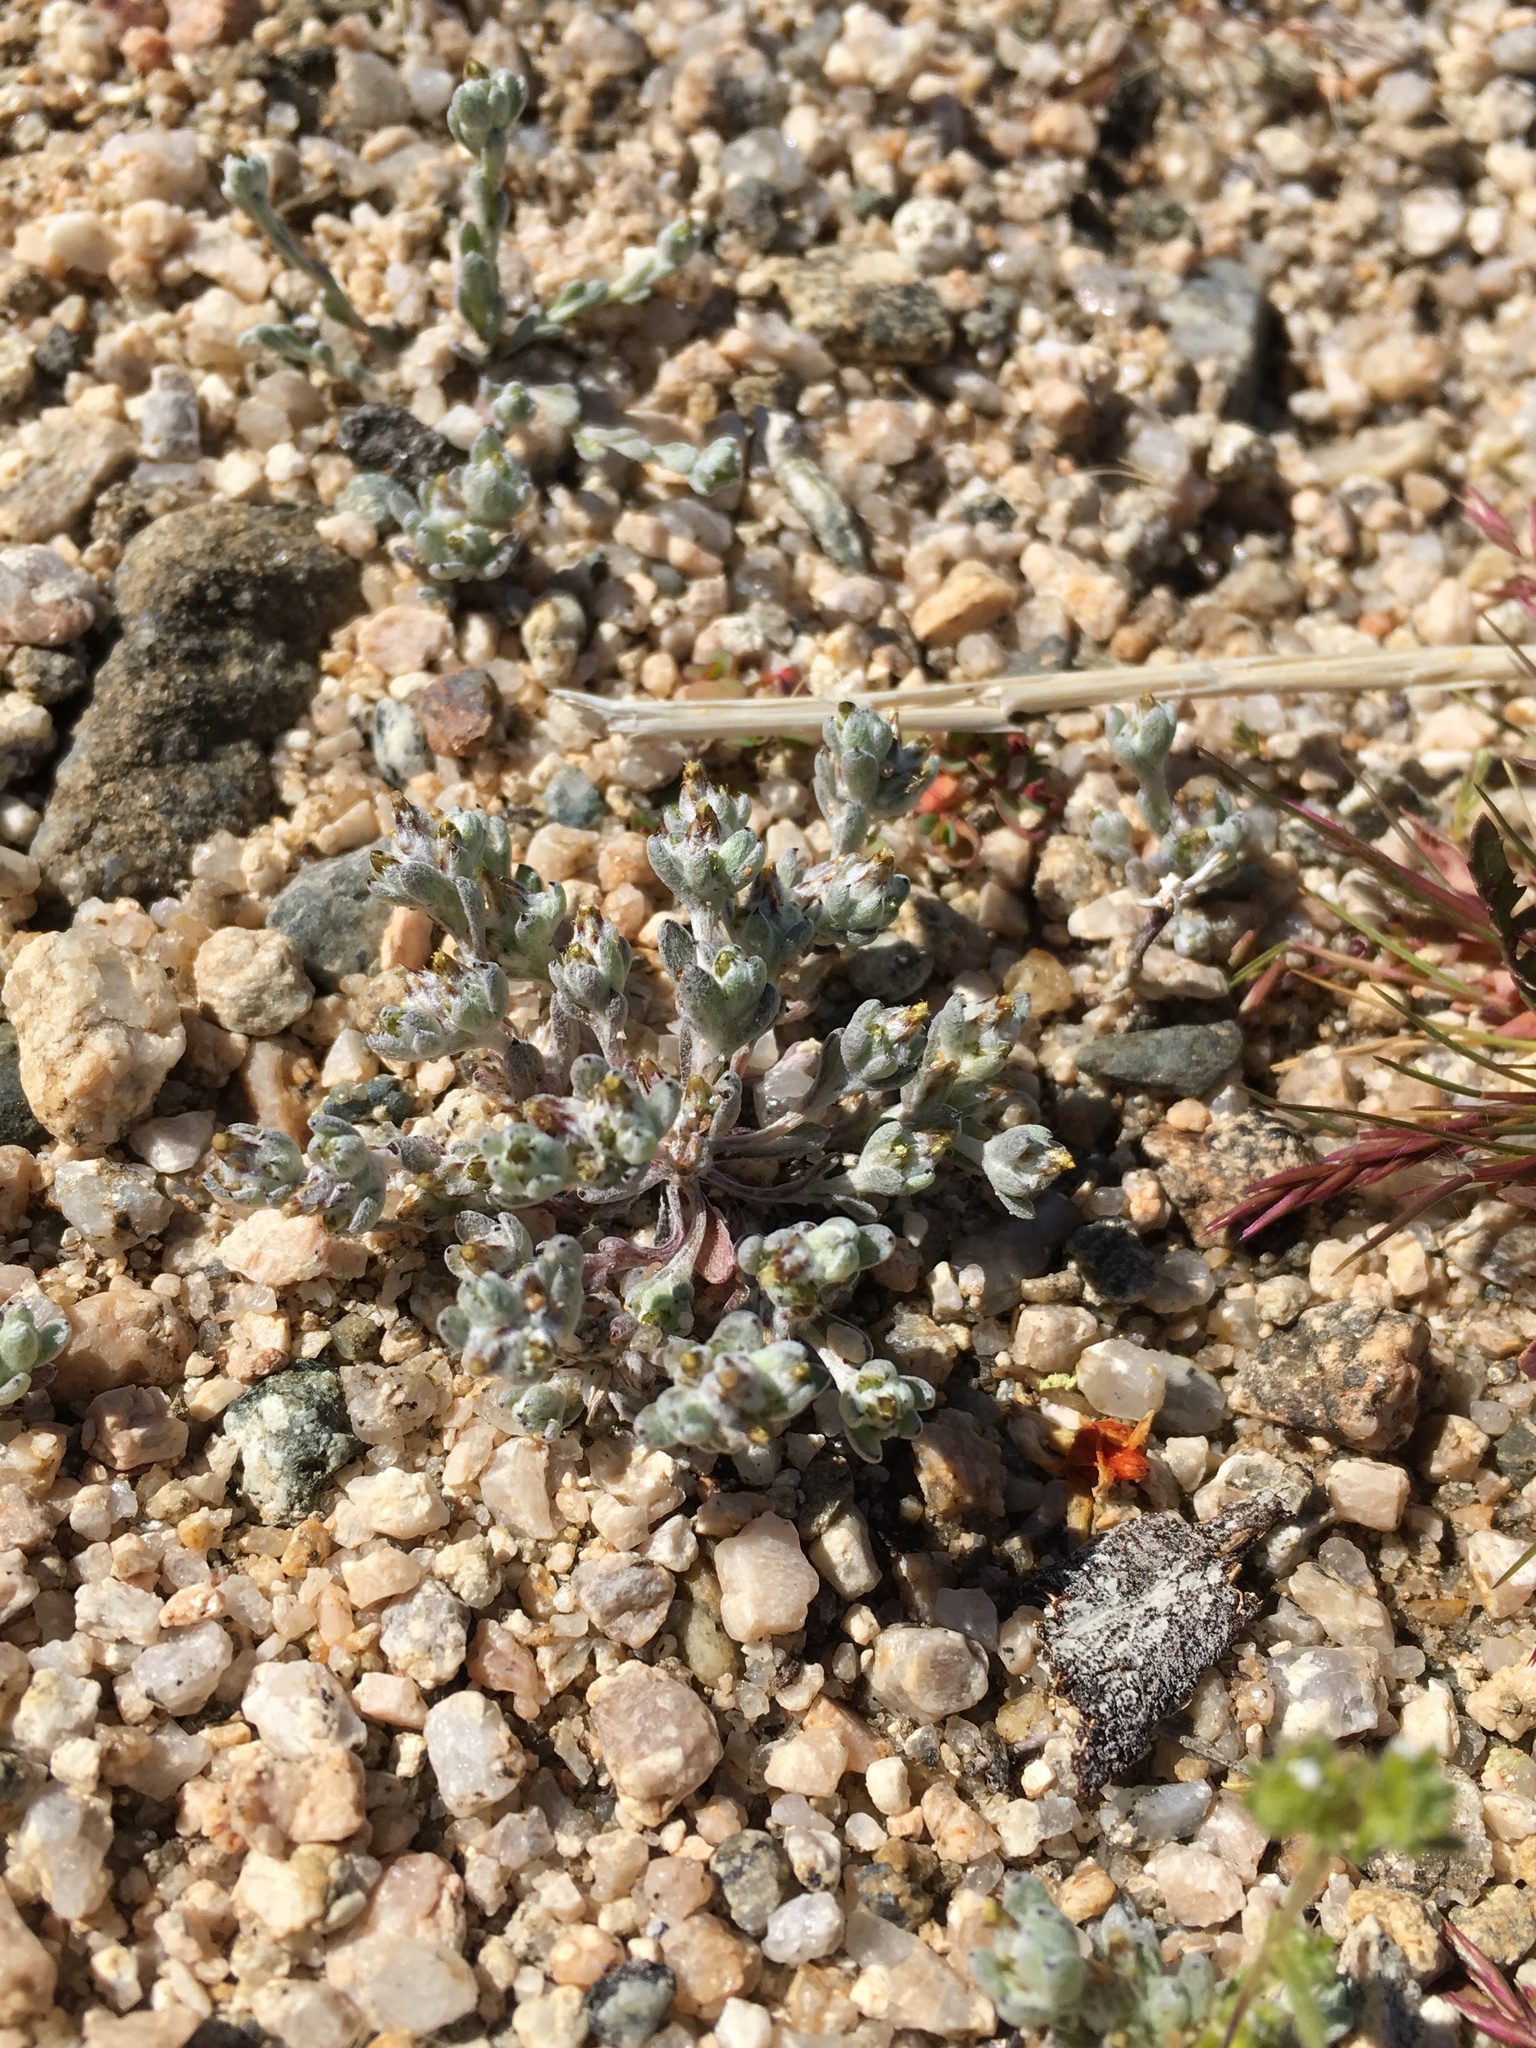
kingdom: Plantae
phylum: Tracheophyta
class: Magnoliopsida
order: Asterales
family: Asteraceae
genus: Logfia
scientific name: Logfia depressa
